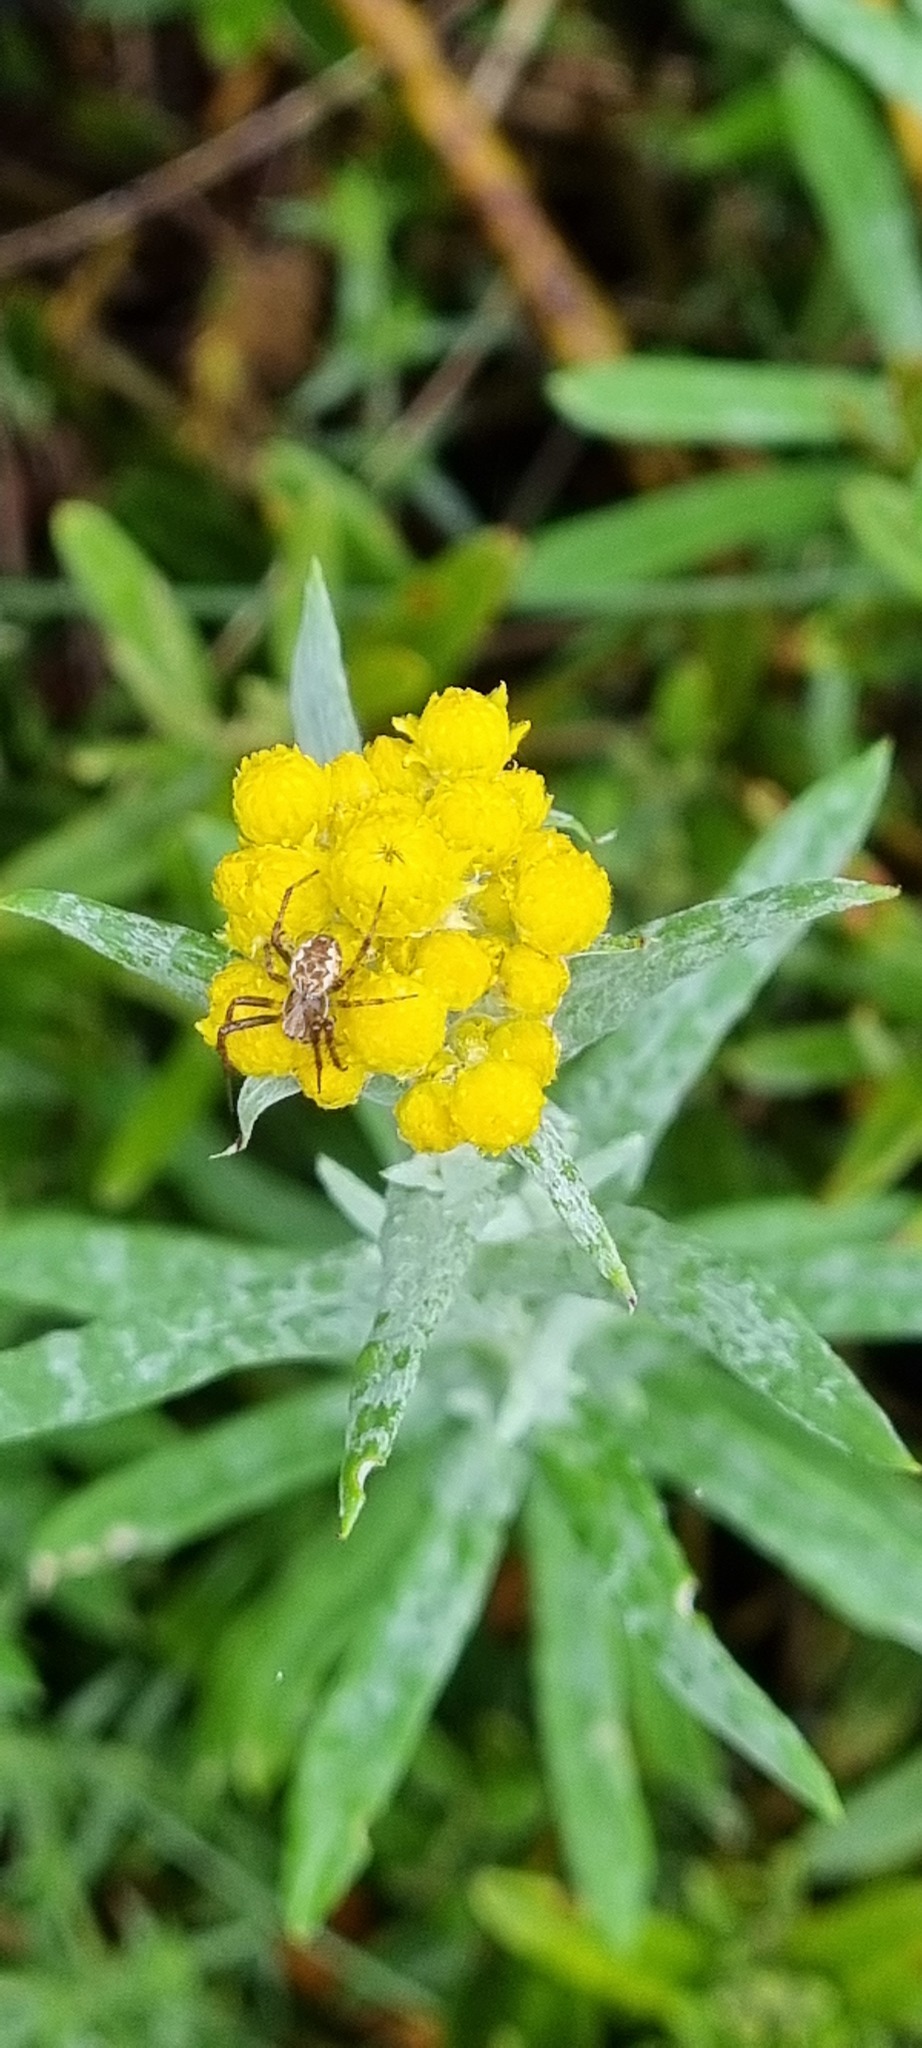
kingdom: Plantae
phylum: Tracheophyta
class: Magnoliopsida
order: Asterales
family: Asteraceae
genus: Chrysocephalum
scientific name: Chrysocephalum semipapposum
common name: Clustered everlasting
